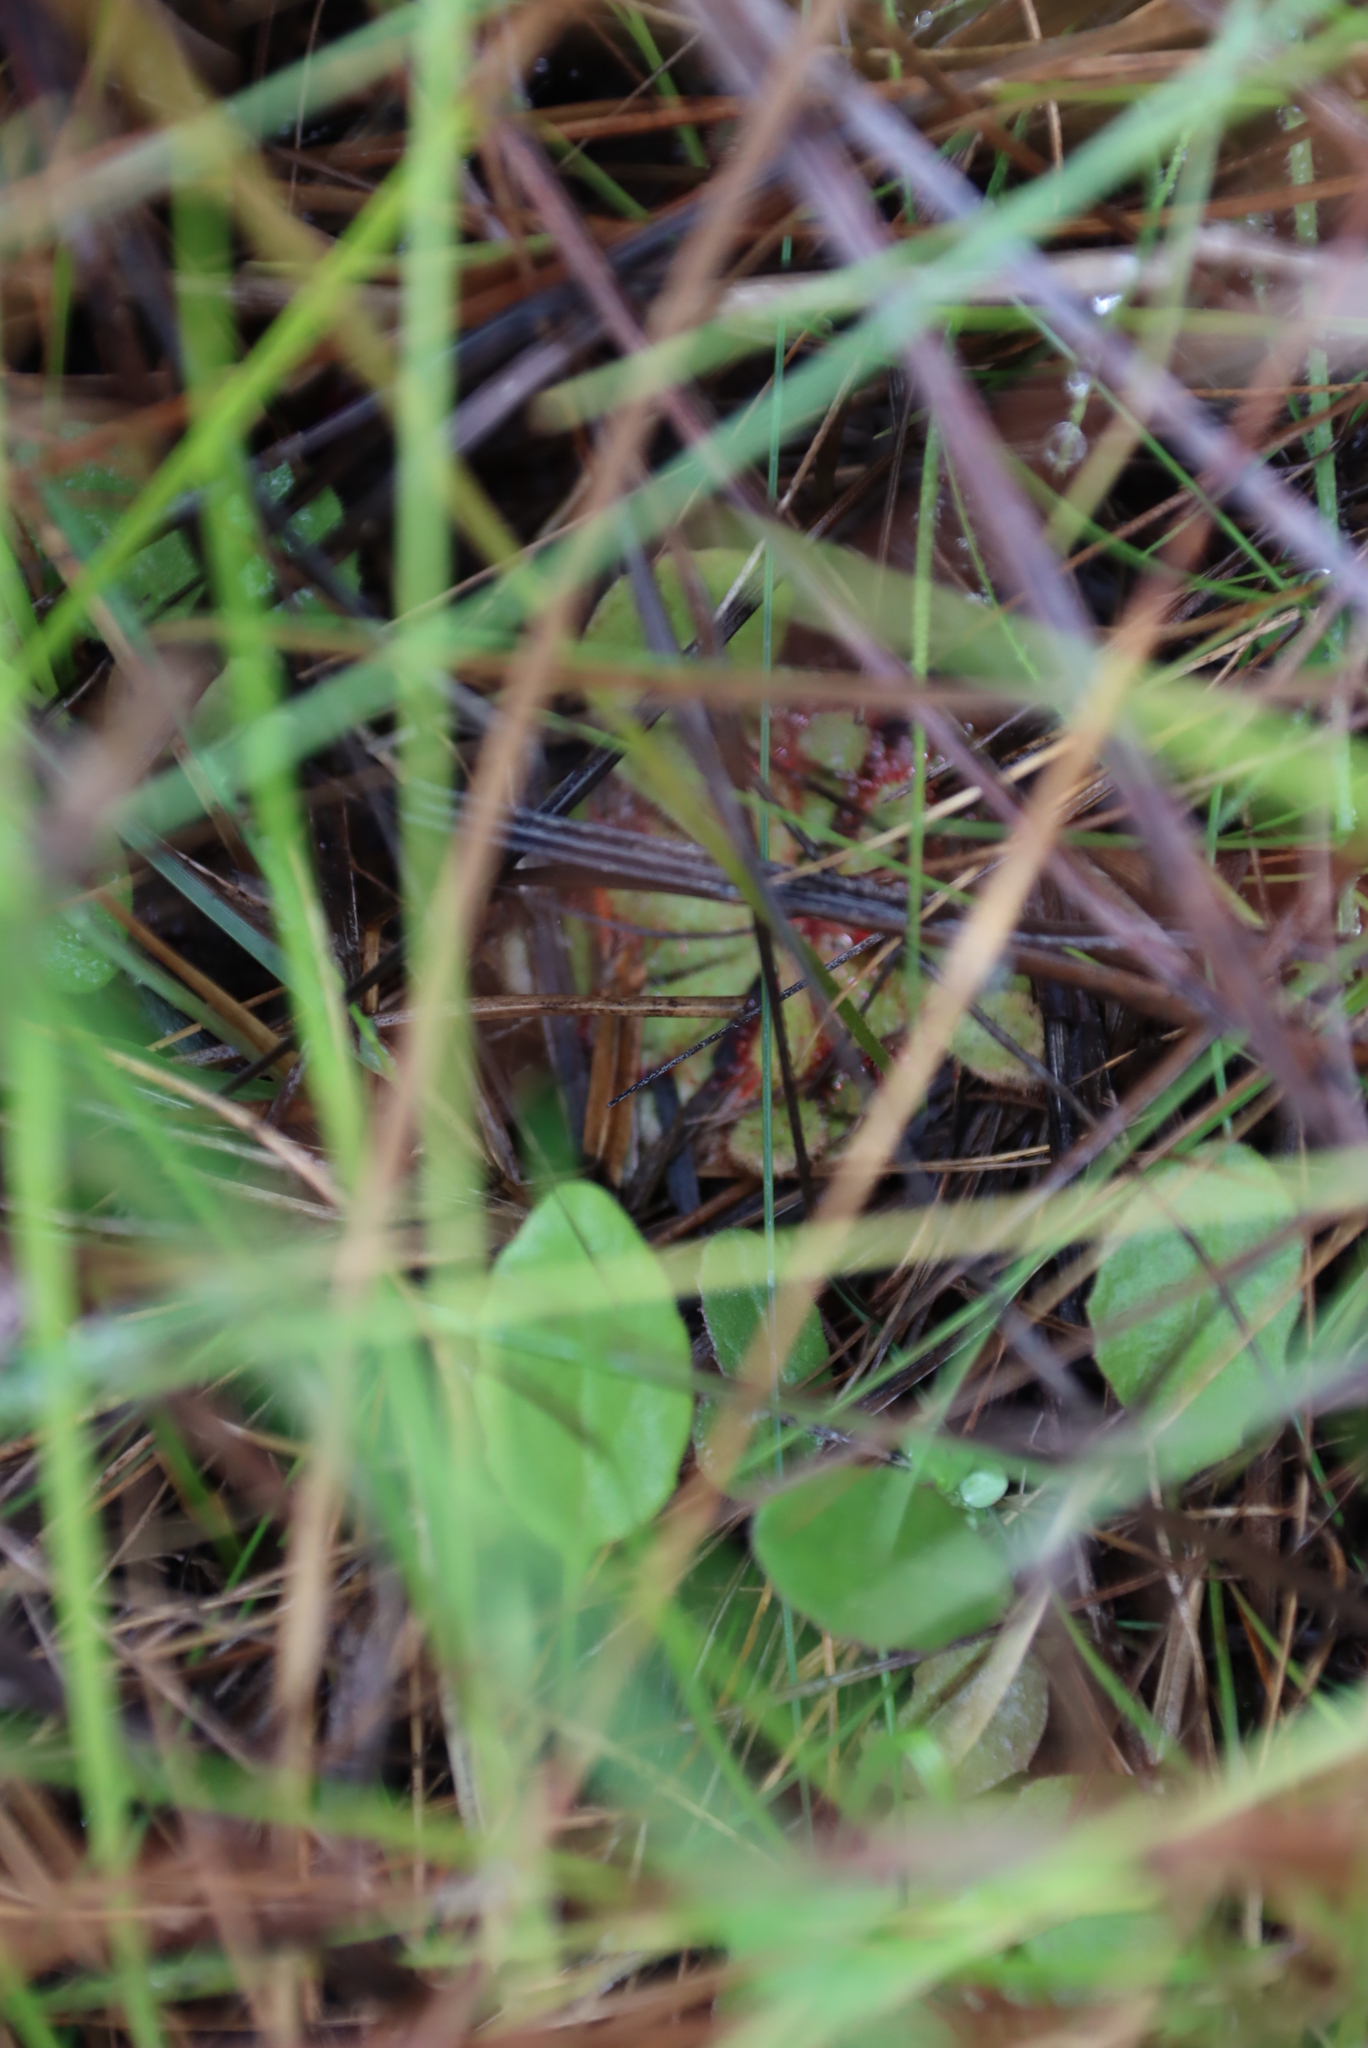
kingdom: Plantae
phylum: Tracheophyta
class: Magnoliopsida
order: Caryophyllales
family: Droseraceae
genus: Drosera
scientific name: Drosera natalensis
